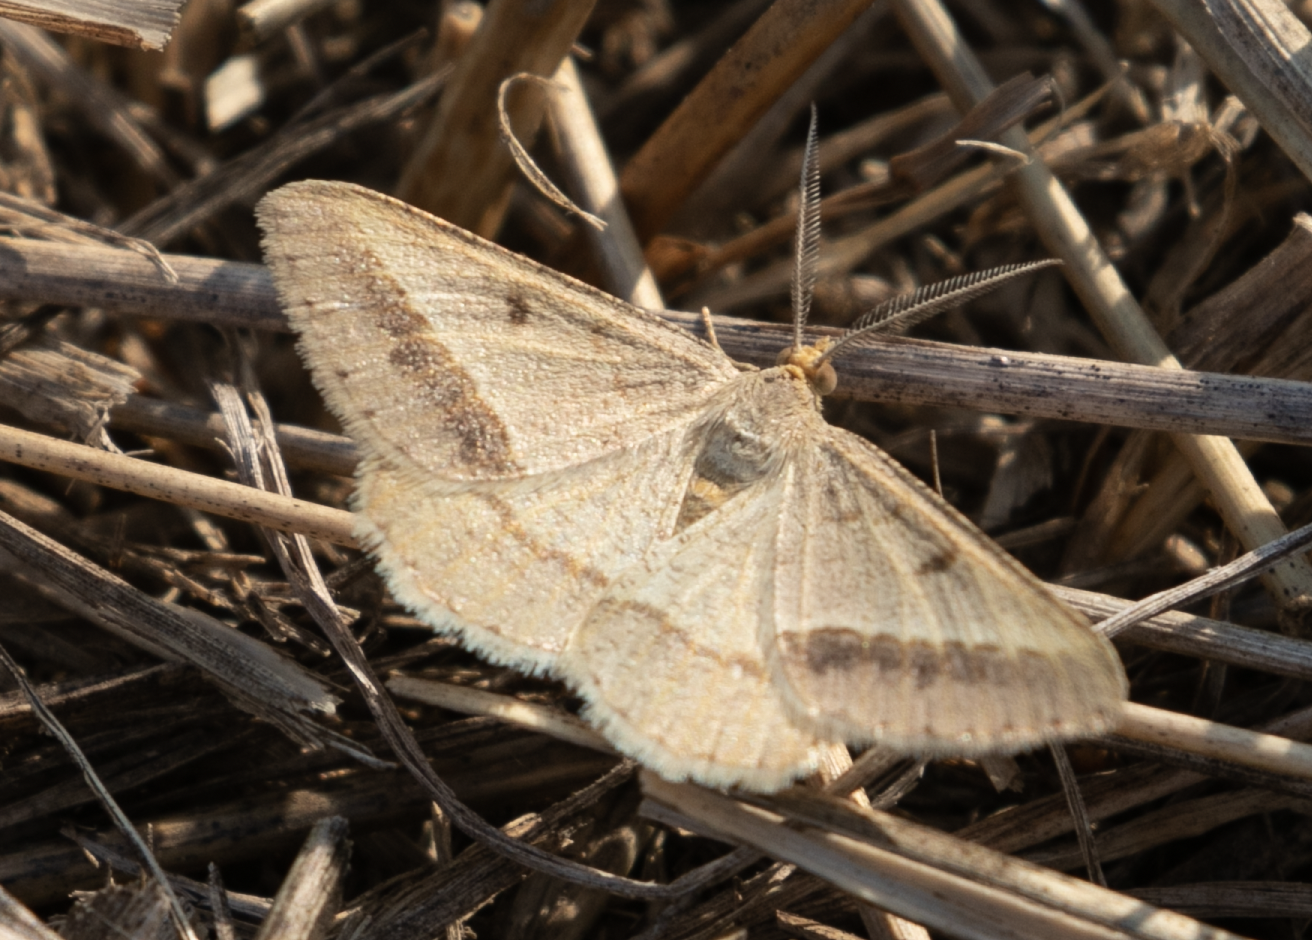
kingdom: Animalia
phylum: Arthropoda
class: Insecta
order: Lepidoptera
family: Geometridae
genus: Tephrina
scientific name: Tephrina arenacearia
